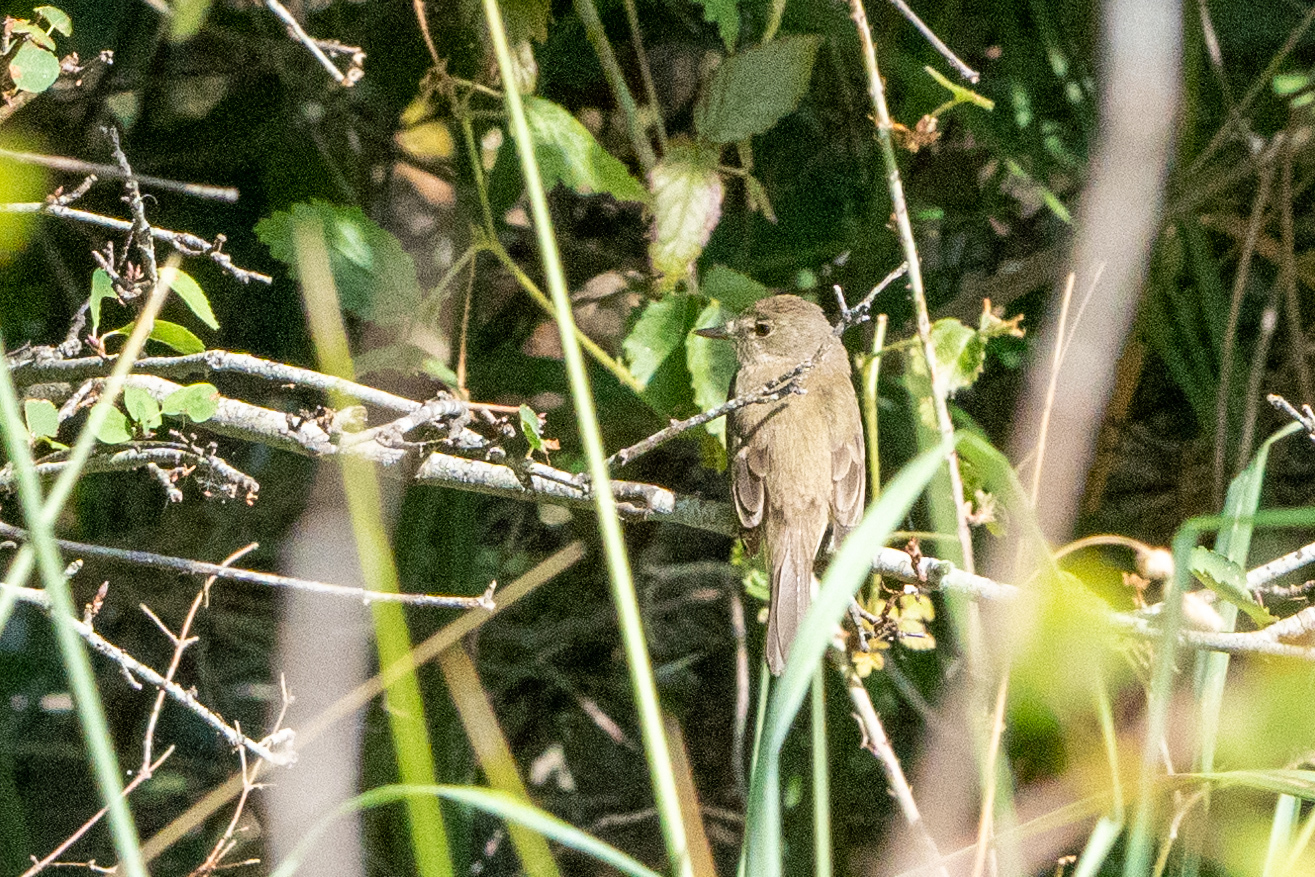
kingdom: Animalia
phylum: Chordata
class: Aves
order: Passeriformes
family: Tyrannidae
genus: Empidonax
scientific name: Empidonax traillii
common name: Willow flycatcher
